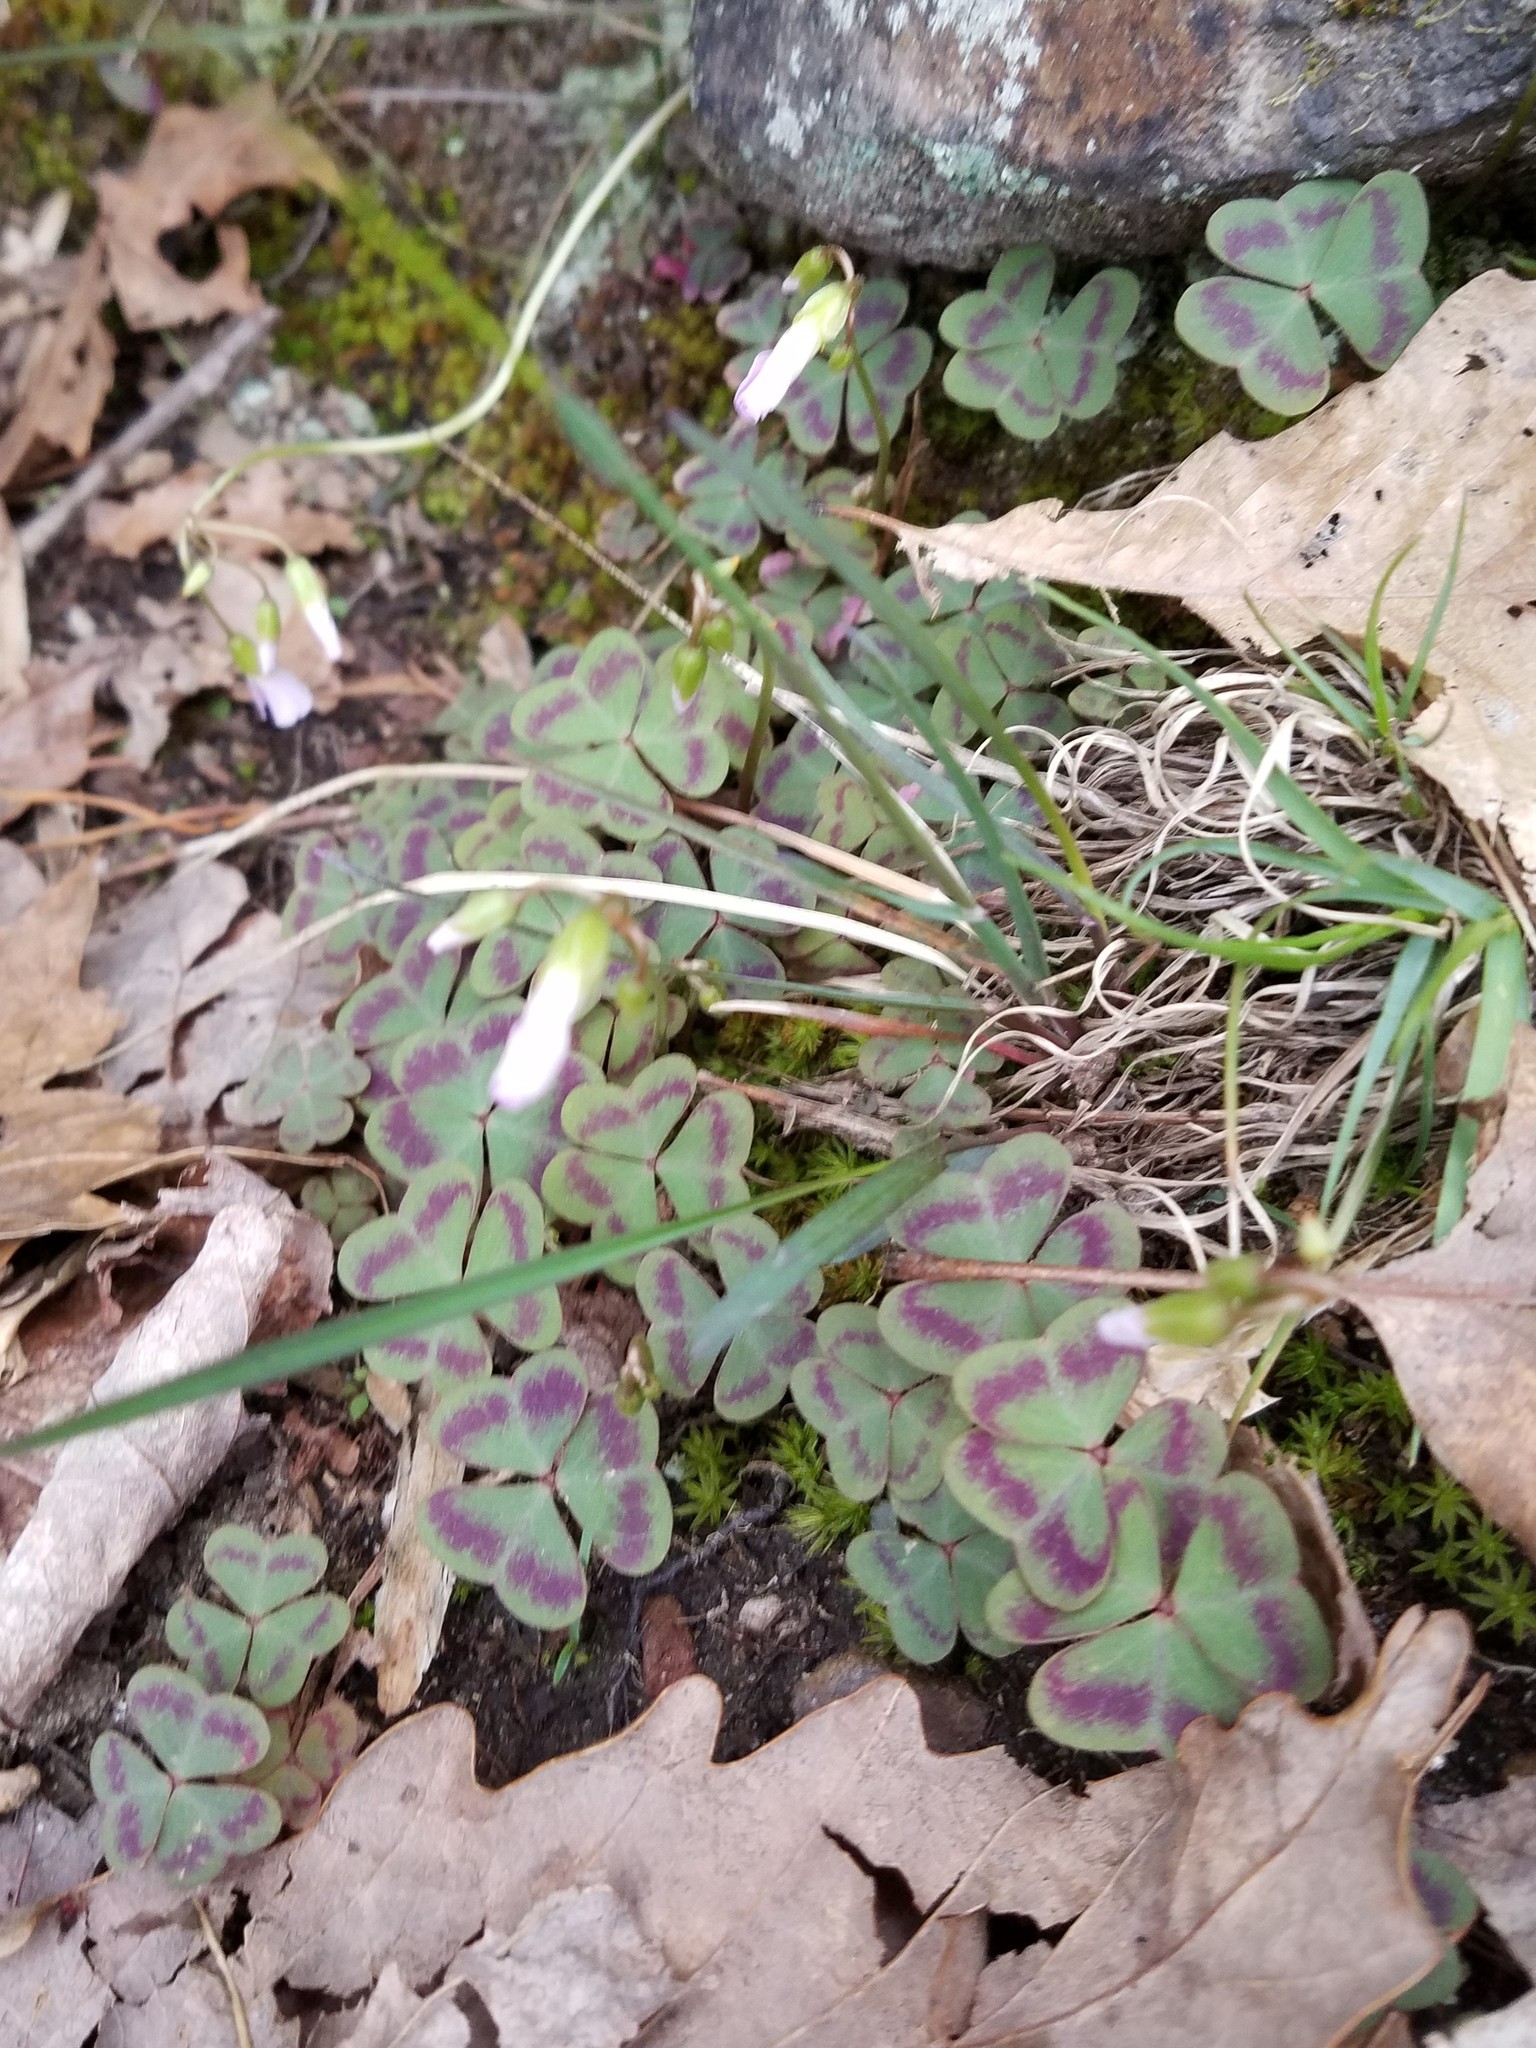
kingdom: Plantae
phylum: Tracheophyta
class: Magnoliopsida
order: Oxalidales
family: Oxalidaceae
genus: Oxalis
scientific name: Oxalis violacea
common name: Violet wood-sorrel
